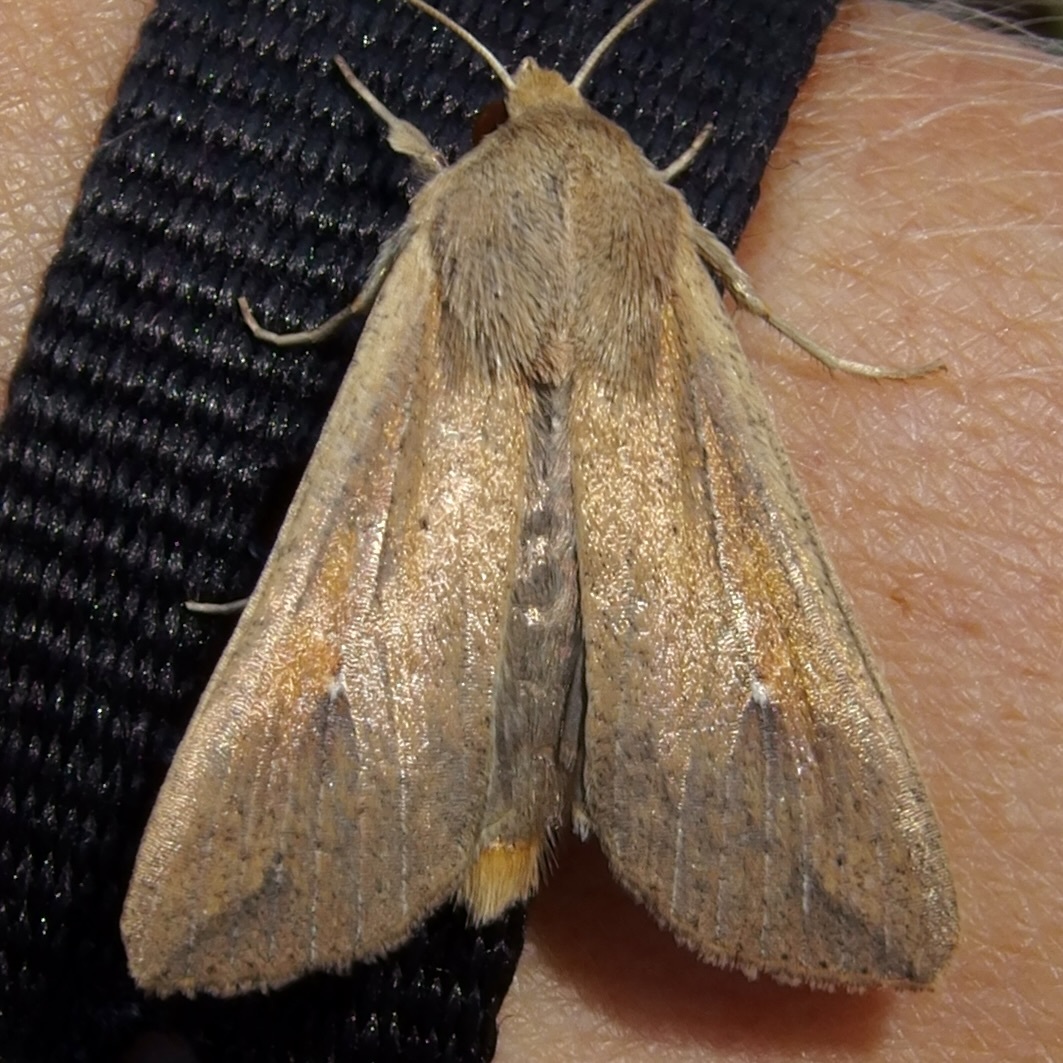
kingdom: Animalia
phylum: Arthropoda
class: Insecta
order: Lepidoptera
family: Noctuidae
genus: Mythimna
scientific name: Mythimna unipuncta
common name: White-speck
